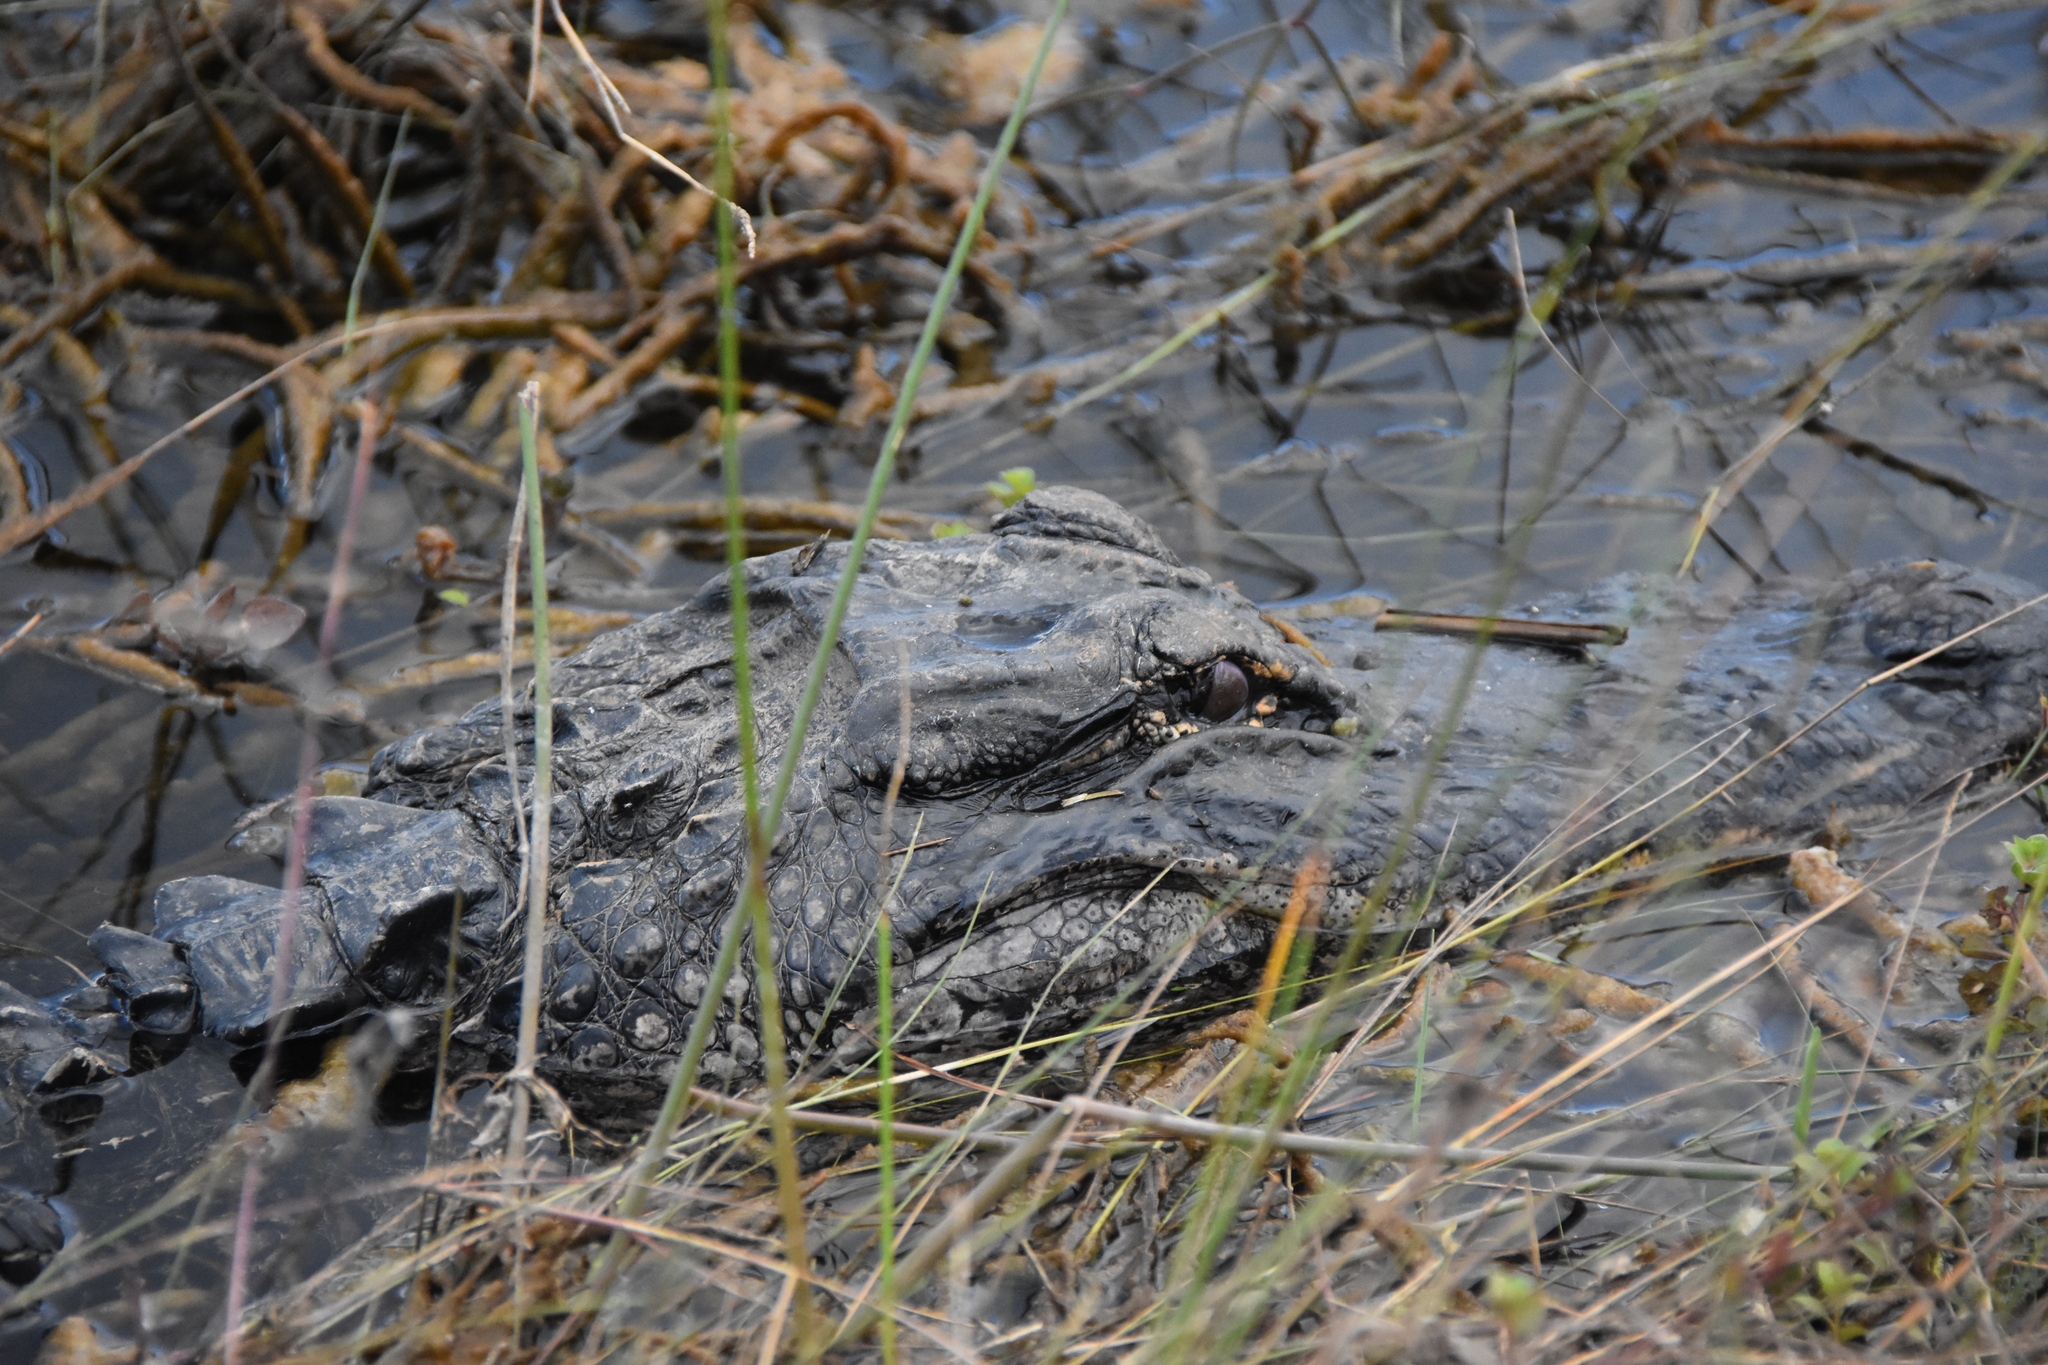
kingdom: Animalia
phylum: Chordata
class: Crocodylia
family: Alligatoridae
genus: Alligator
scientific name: Alligator mississippiensis
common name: American alligator
